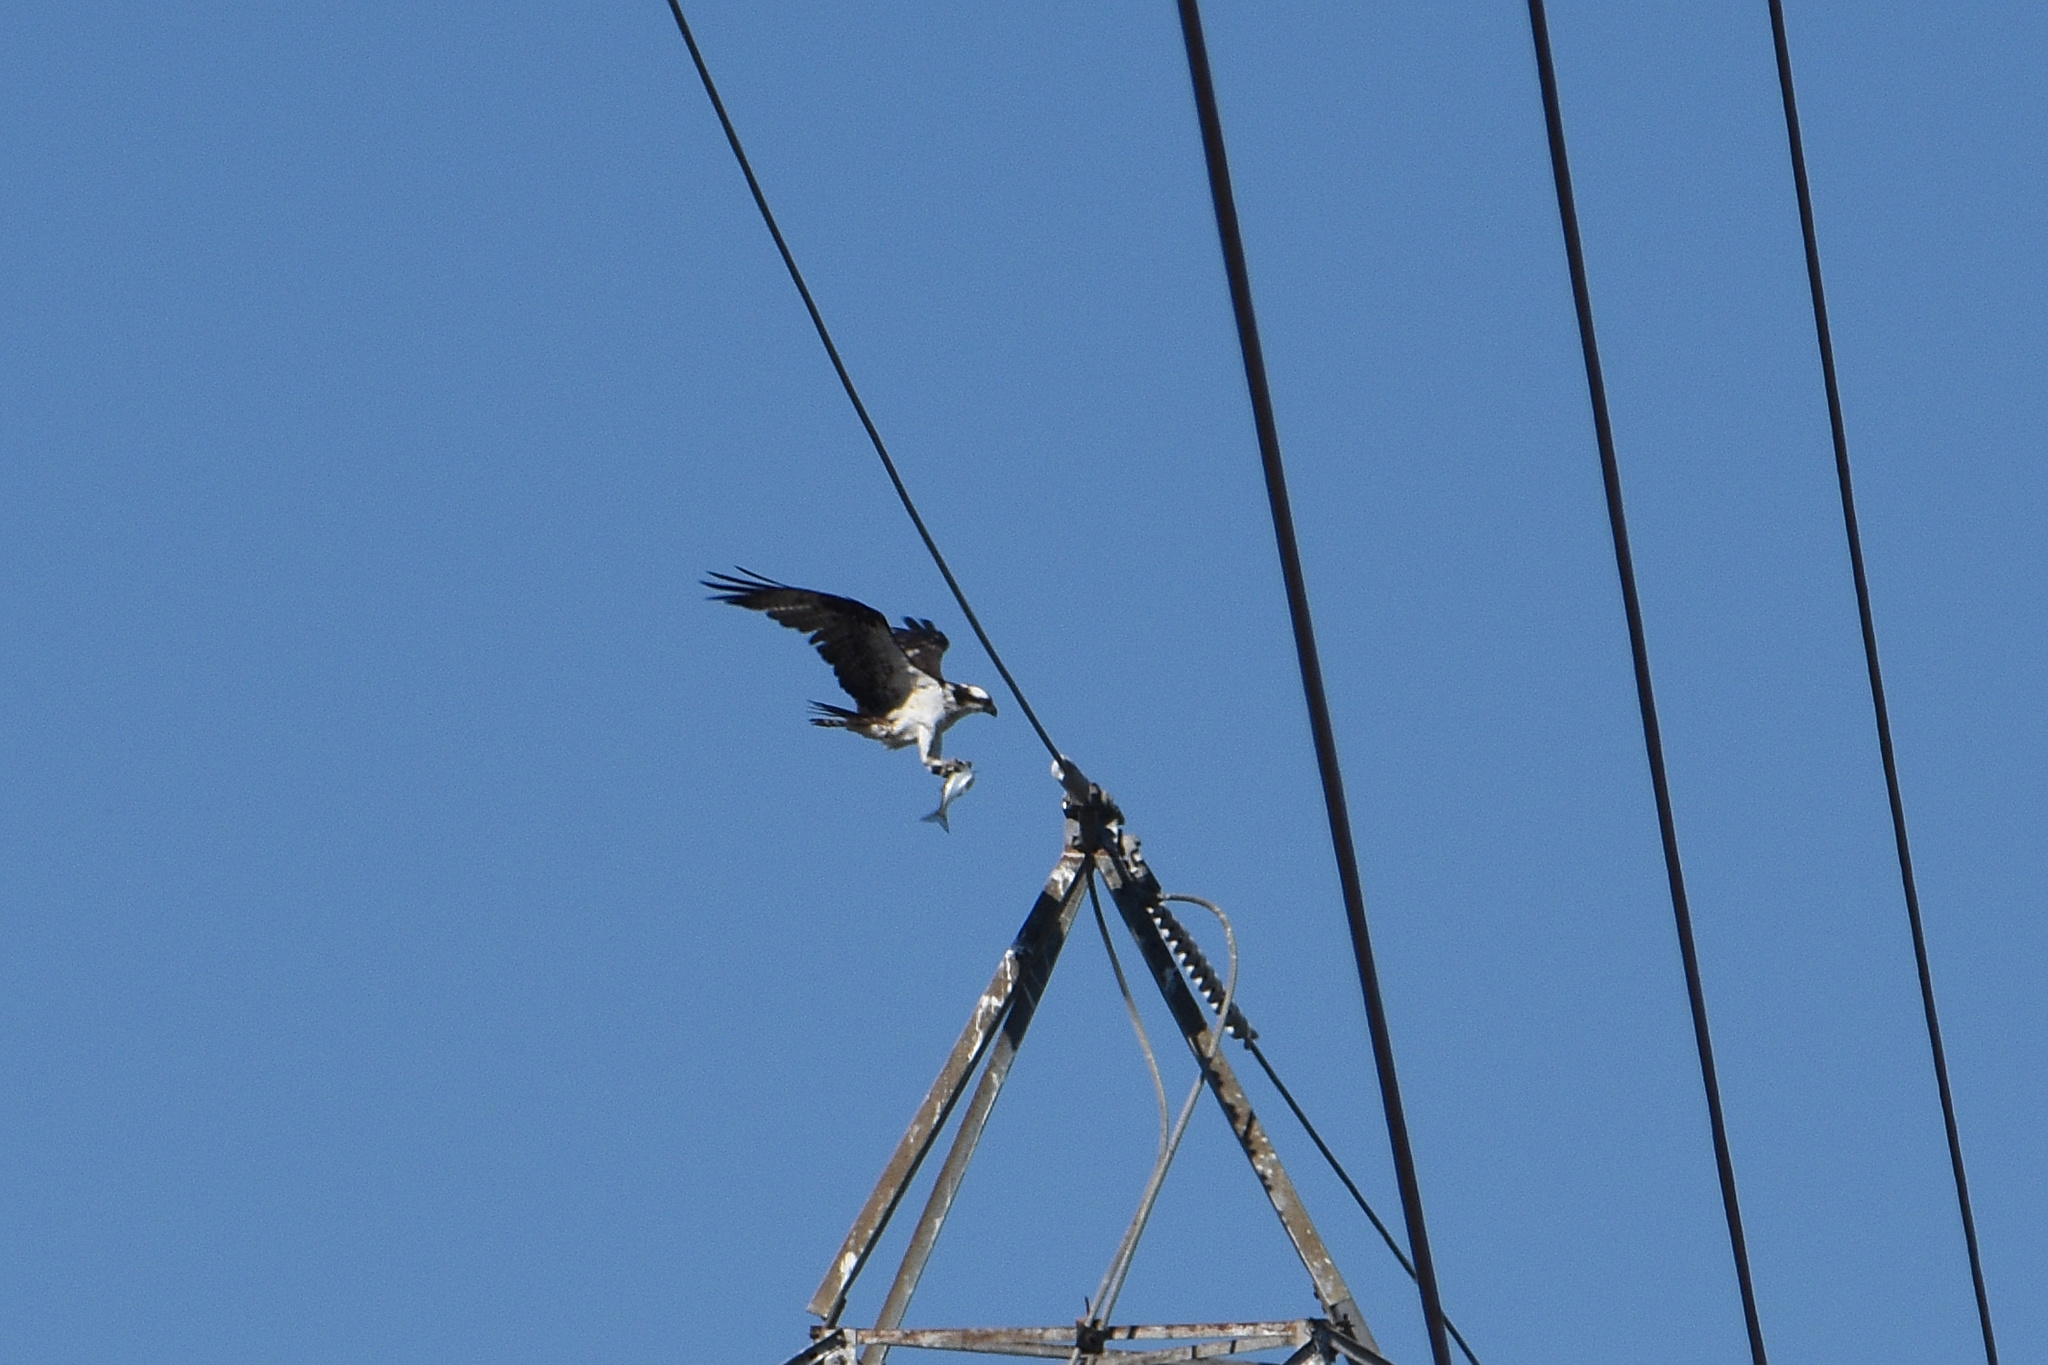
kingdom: Animalia
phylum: Chordata
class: Aves
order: Accipitriformes
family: Pandionidae
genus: Pandion
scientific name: Pandion haliaetus
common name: Osprey
